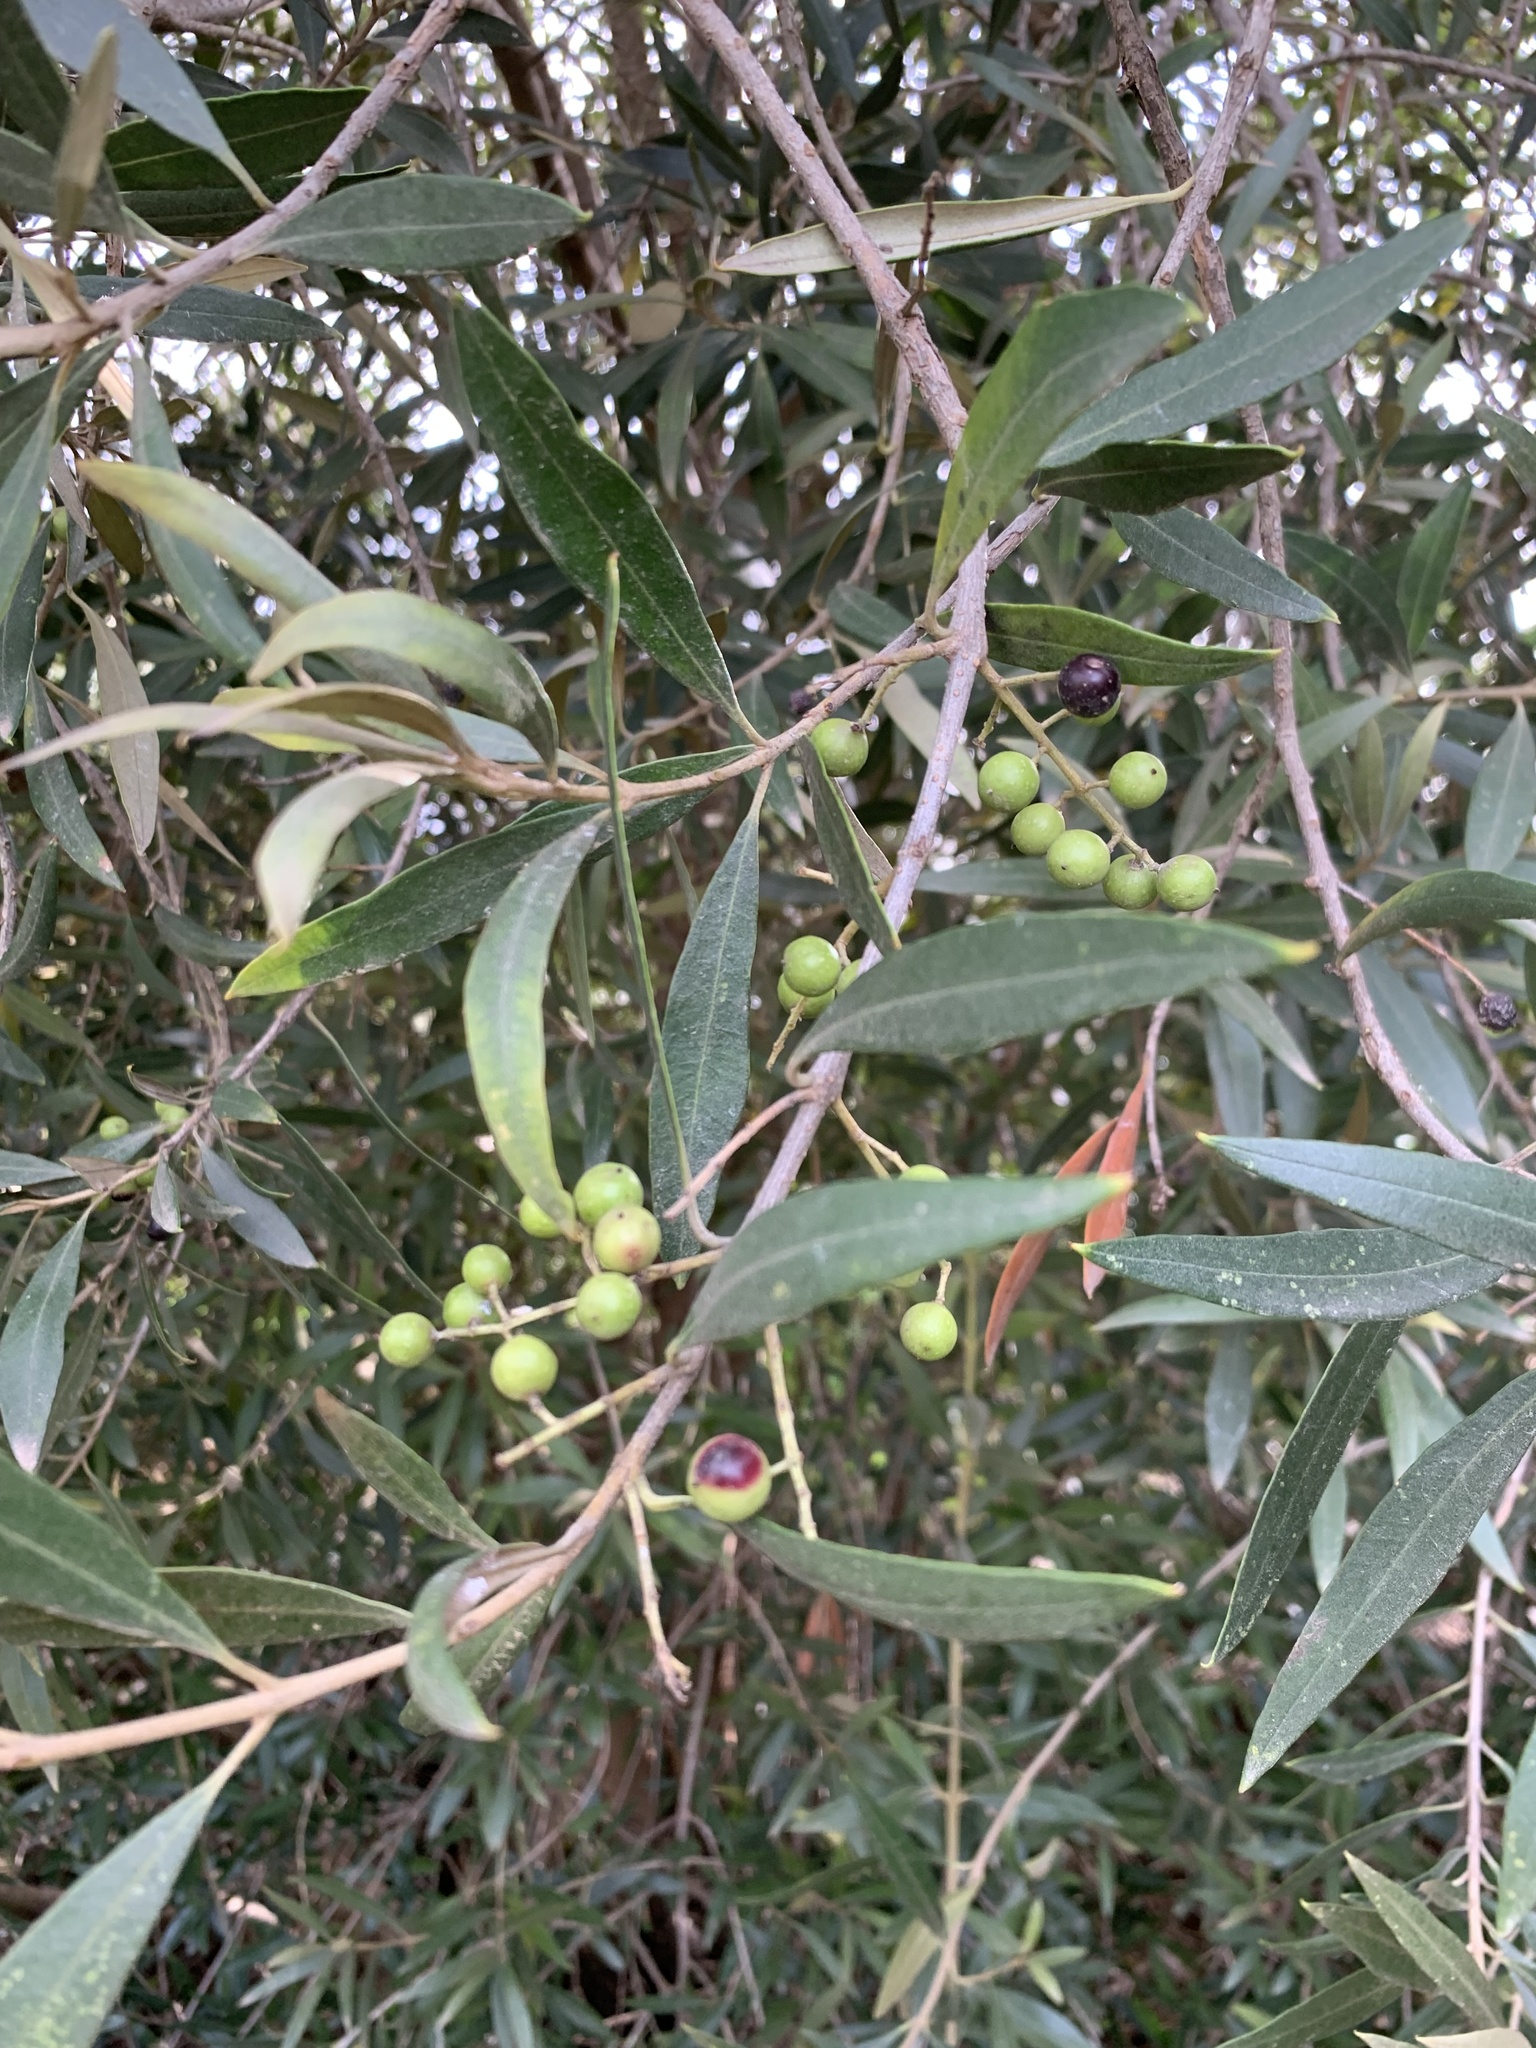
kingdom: Plantae
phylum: Tracheophyta
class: Magnoliopsida
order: Lamiales
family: Oleaceae
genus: Olea
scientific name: Olea europaea
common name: Olive
